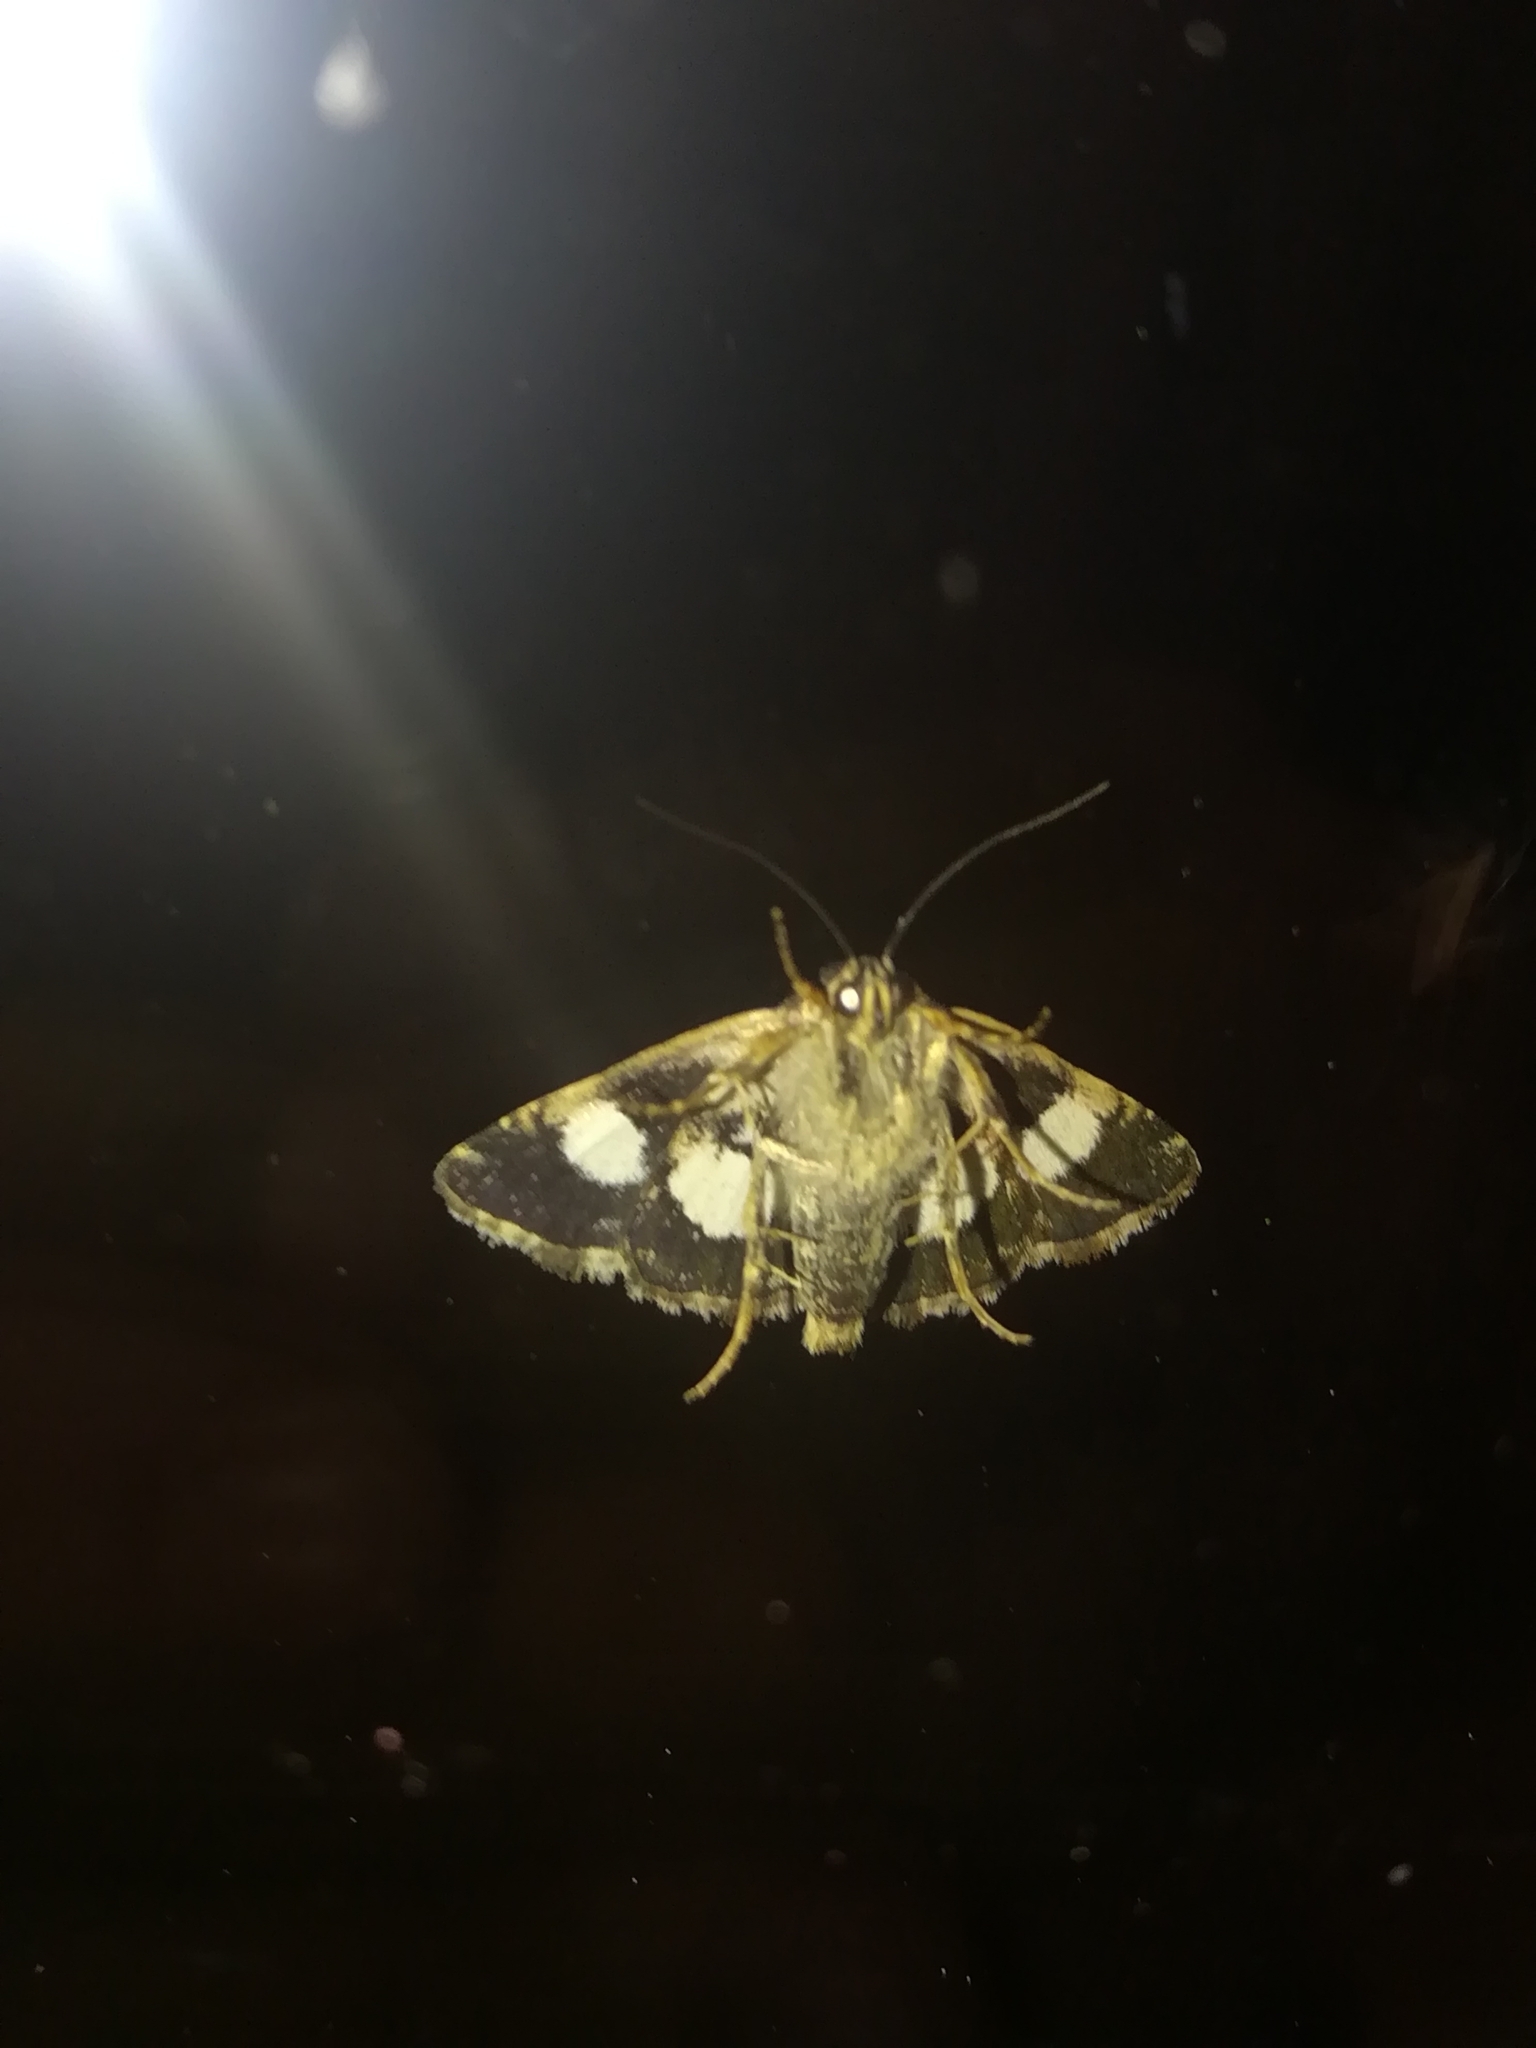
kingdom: Animalia
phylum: Arthropoda
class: Insecta
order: Lepidoptera
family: Erebidae
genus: Tyta
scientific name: Tyta luctuosa
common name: Four-spotted
